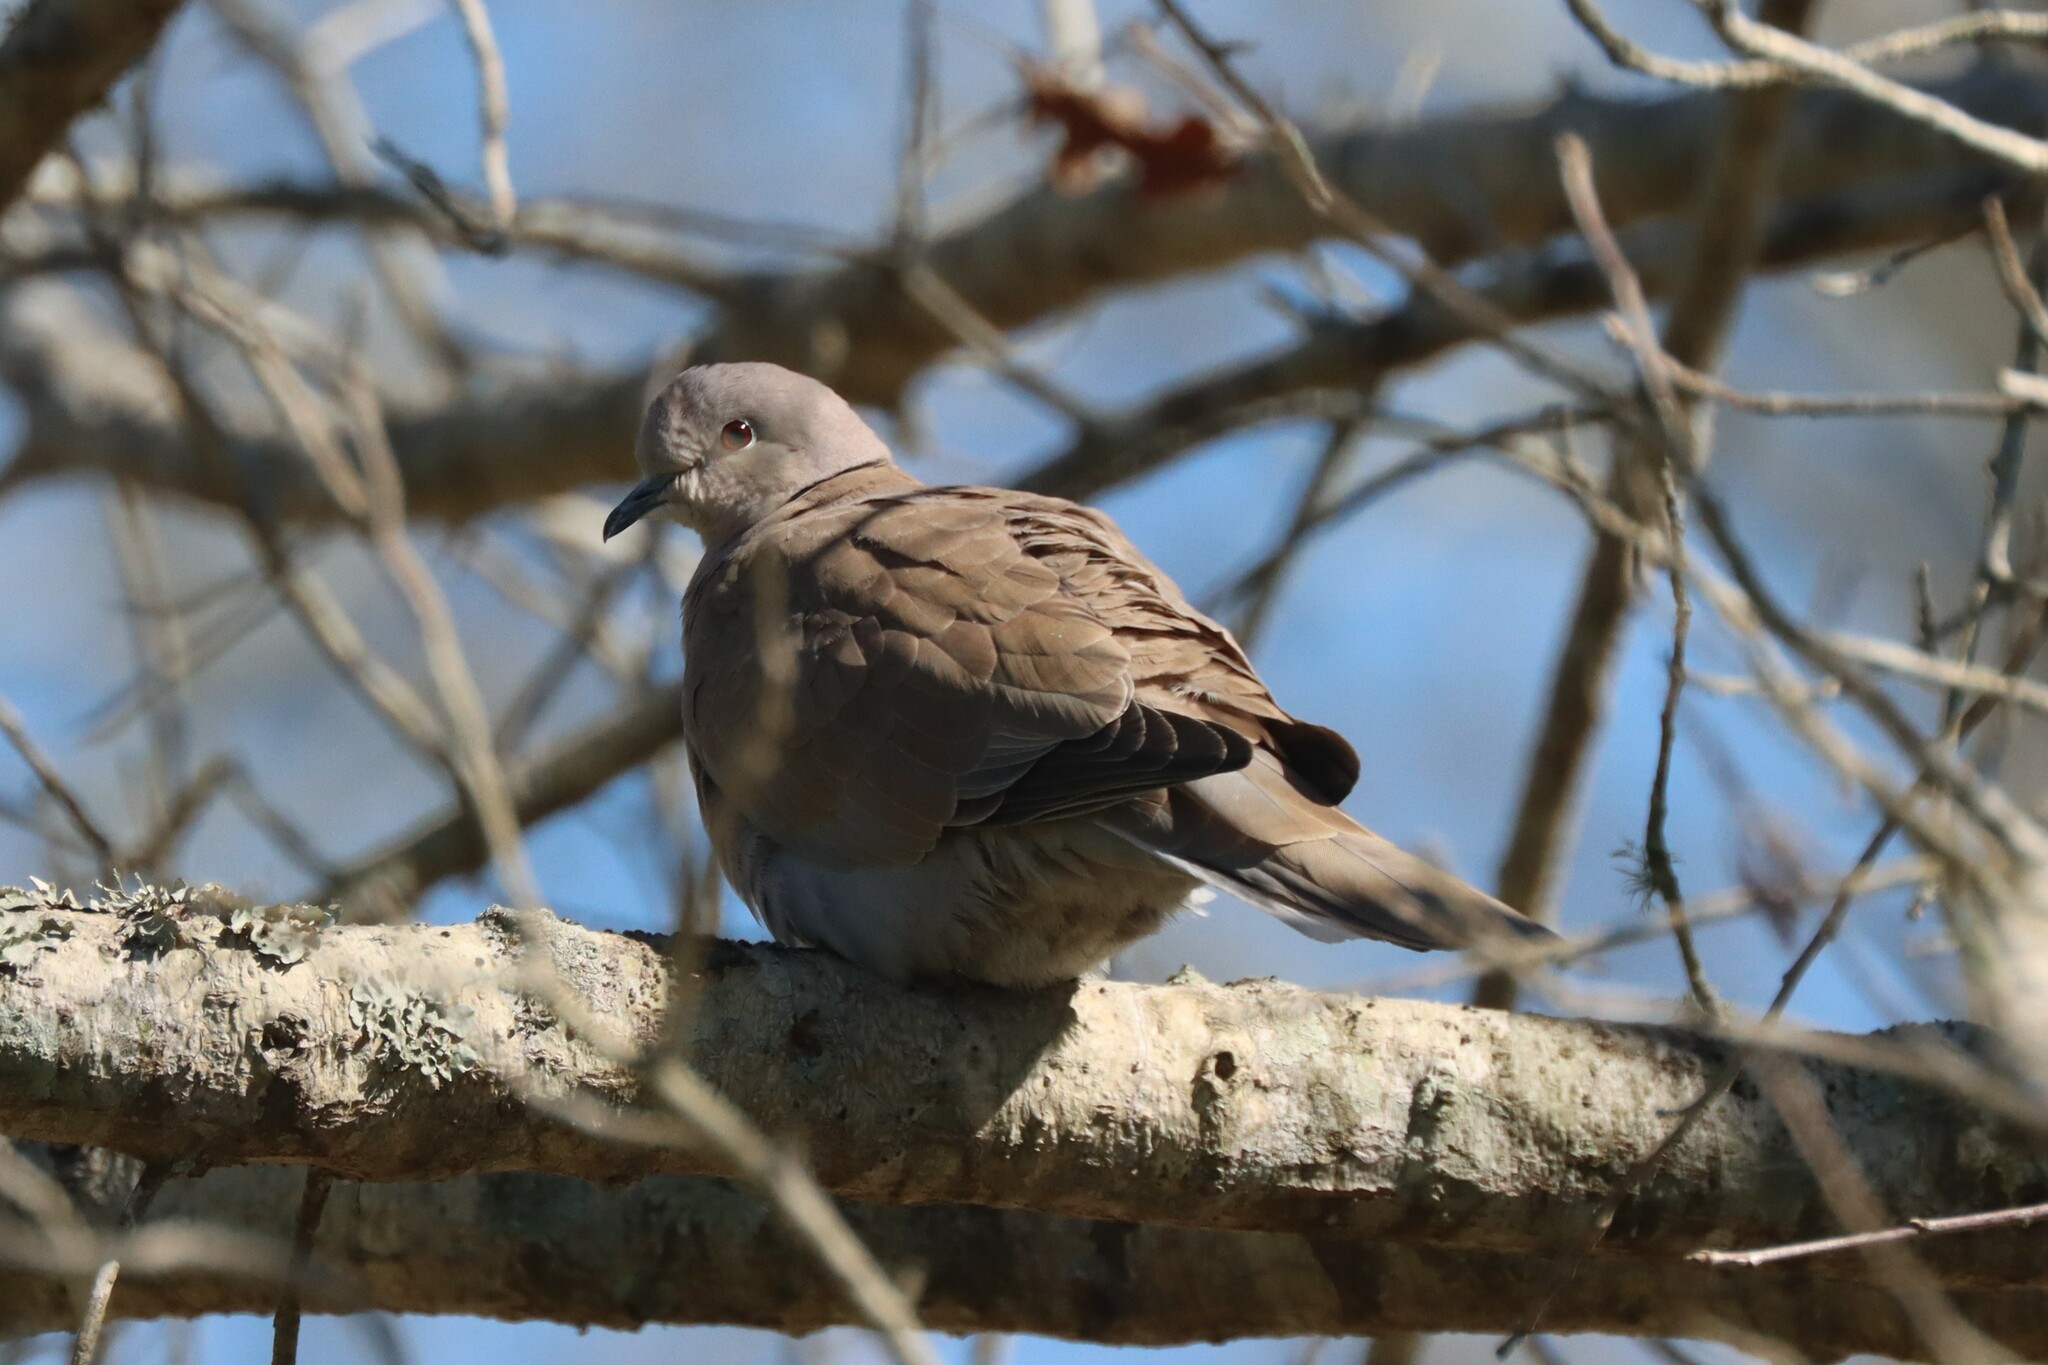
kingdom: Animalia
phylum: Chordata
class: Aves
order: Columbiformes
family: Columbidae
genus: Streptopelia
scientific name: Streptopelia decaocto
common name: Eurasian collared dove
